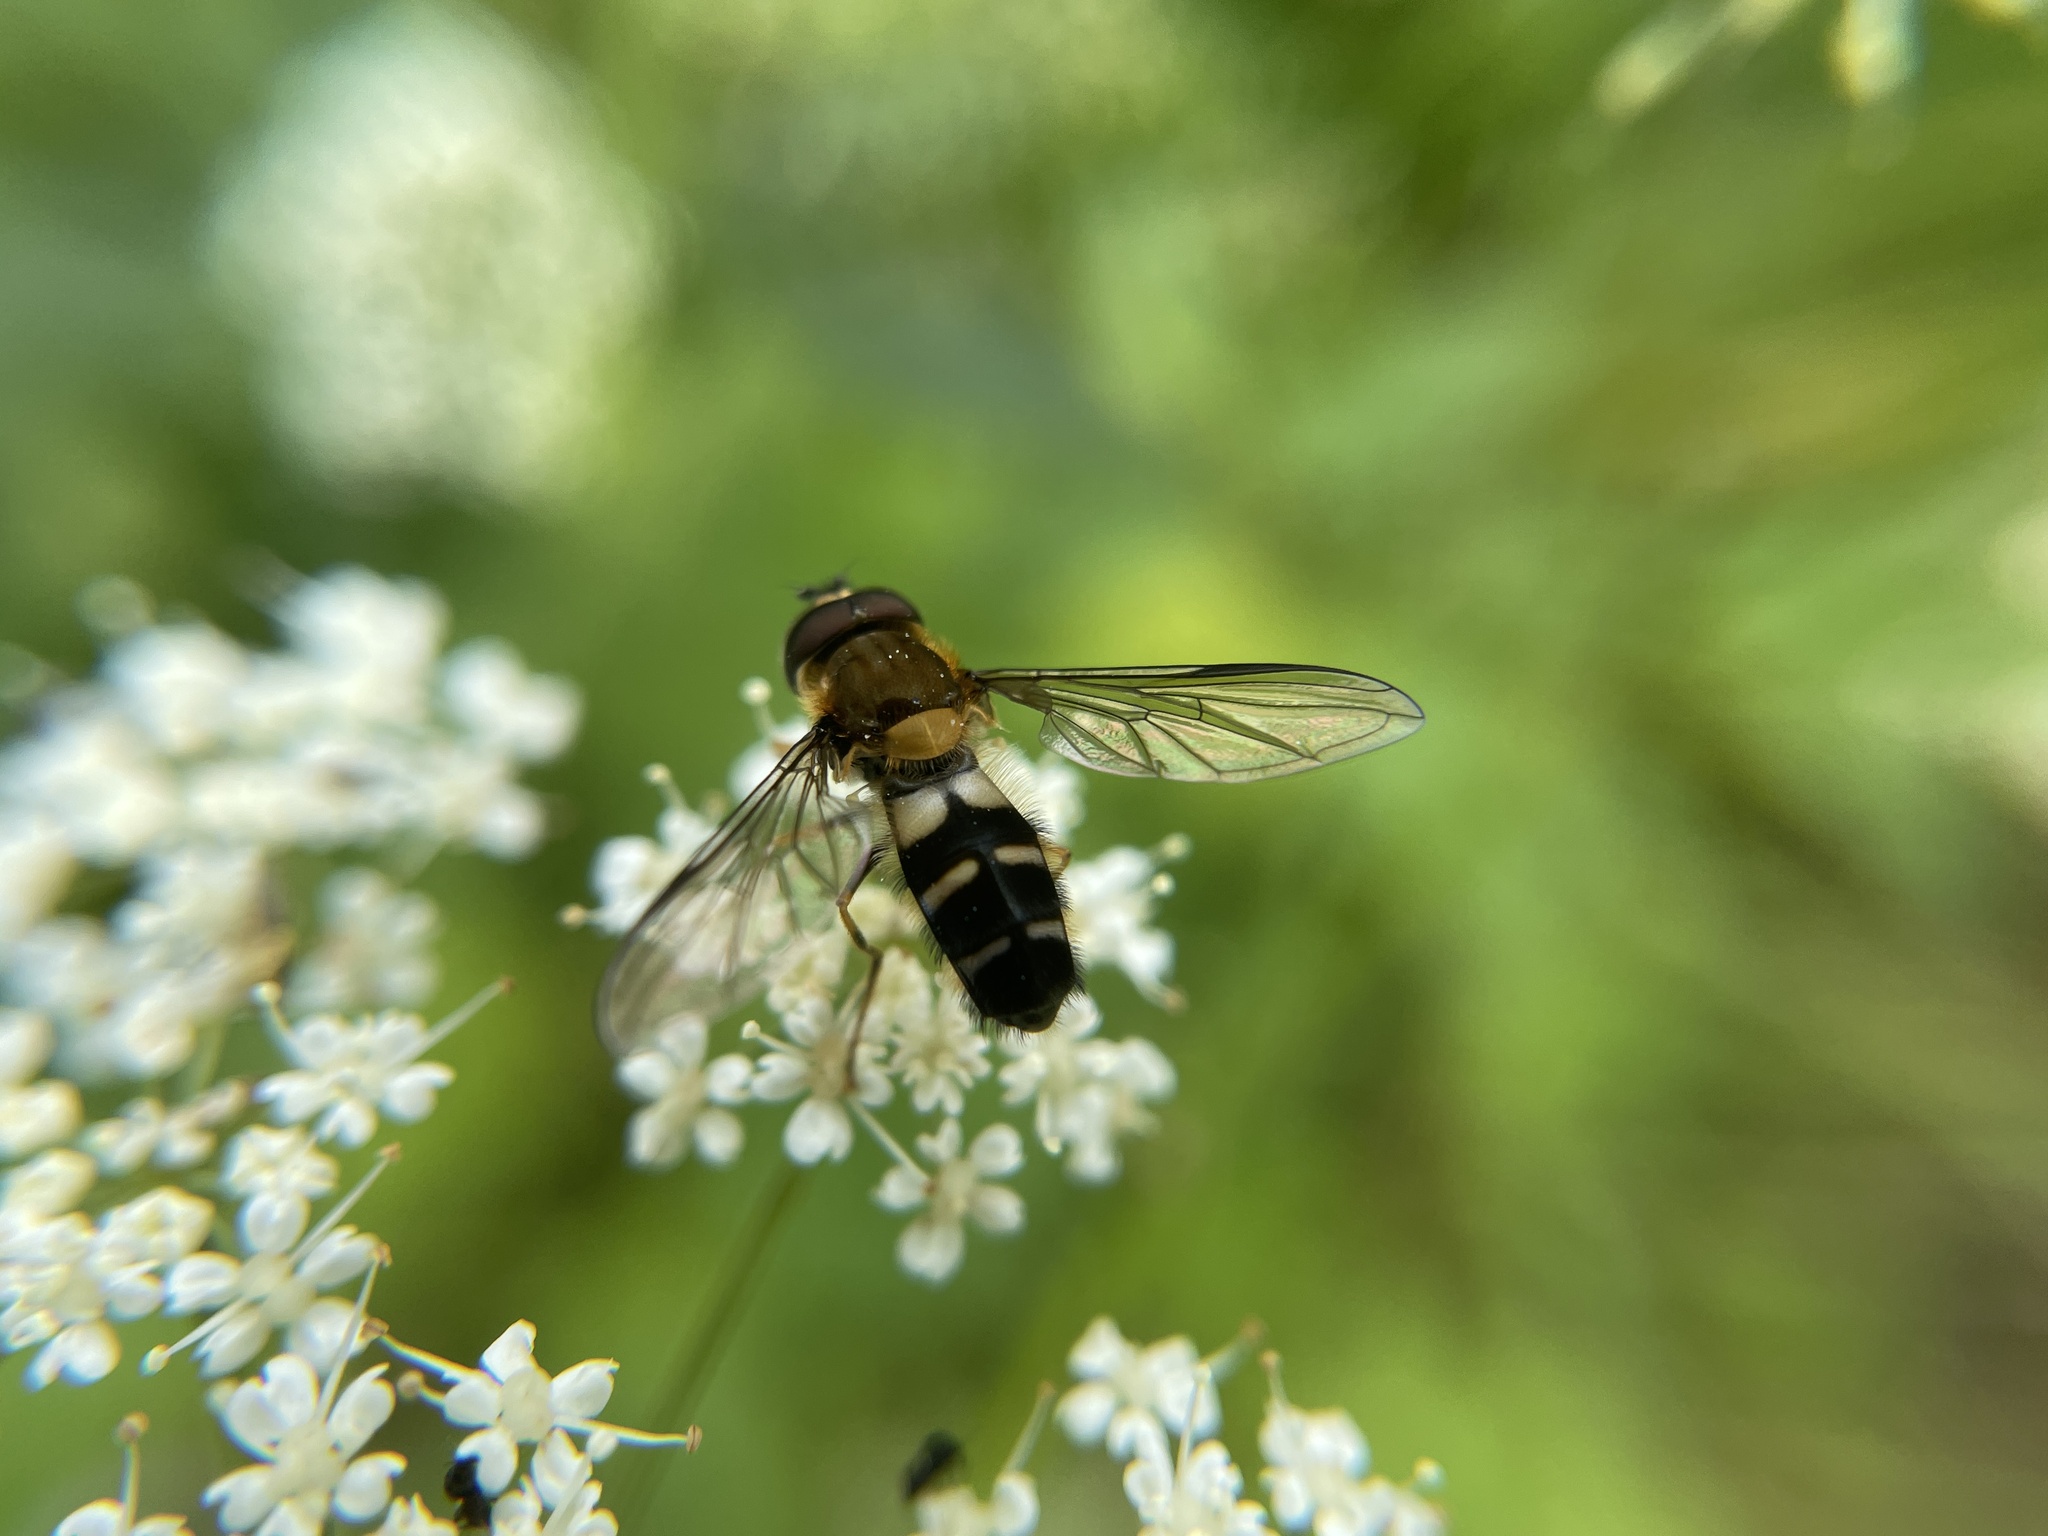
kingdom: Animalia
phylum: Arthropoda
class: Insecta
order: Diptera
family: Syrphidae
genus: Leucozona
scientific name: Leucozona glaucia
